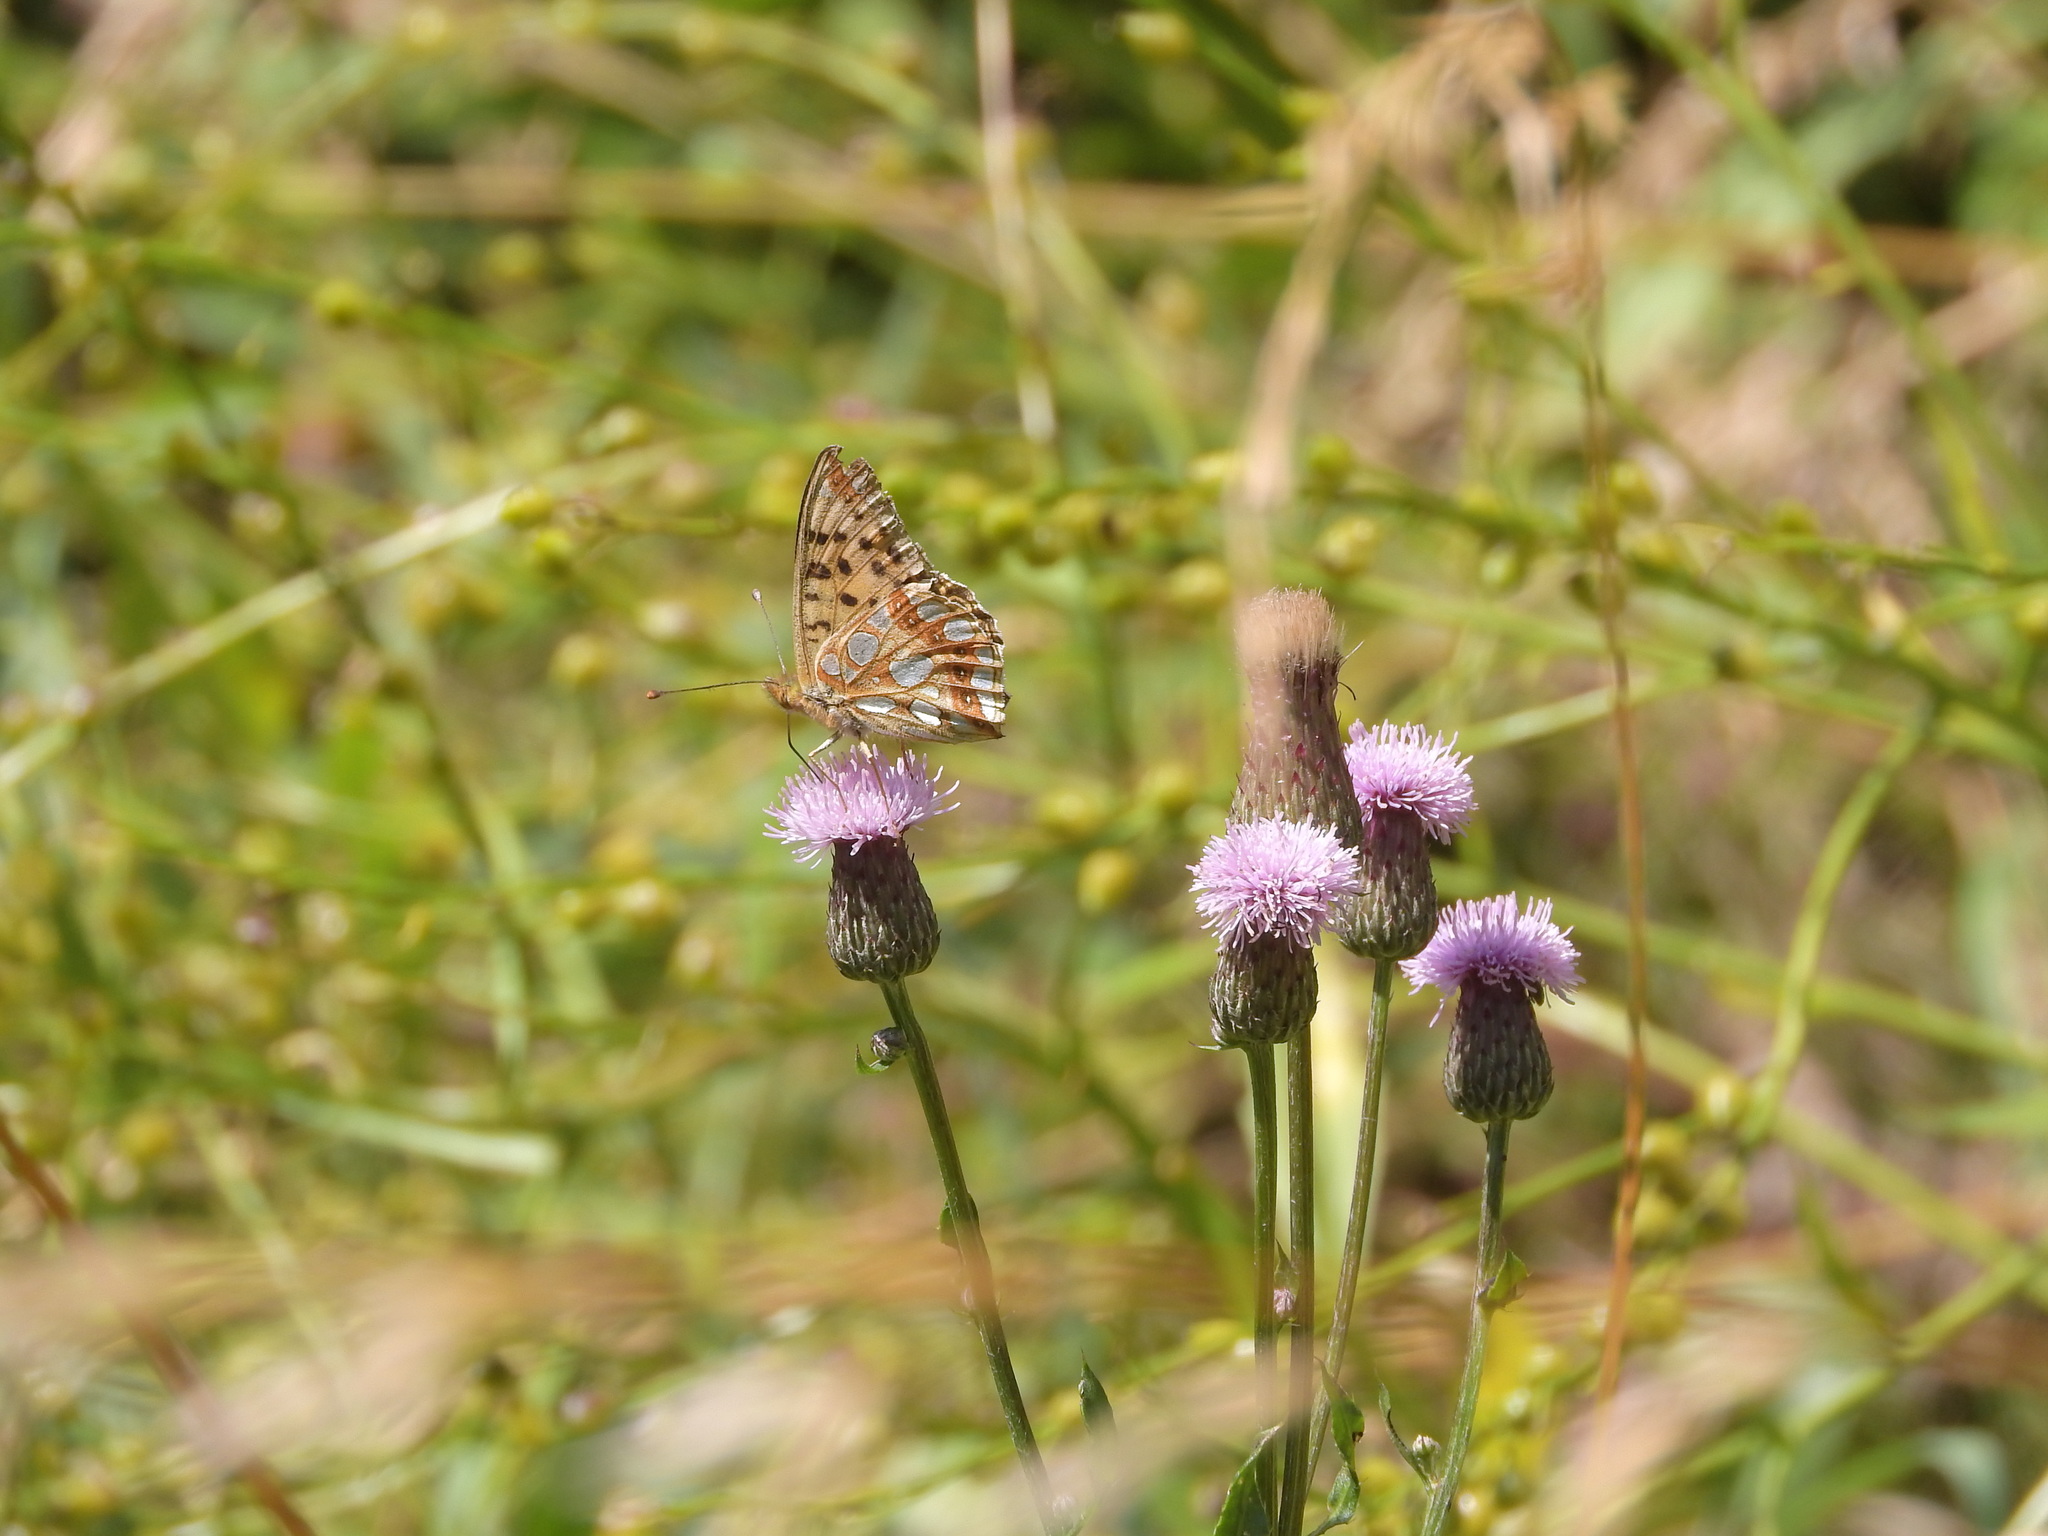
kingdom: Animalia
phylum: Arthropoda
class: Insecta
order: Lepidoptera
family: Nymphalidae
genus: Issoria
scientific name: Issoria lathonia
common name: Queen of spain fritillary
